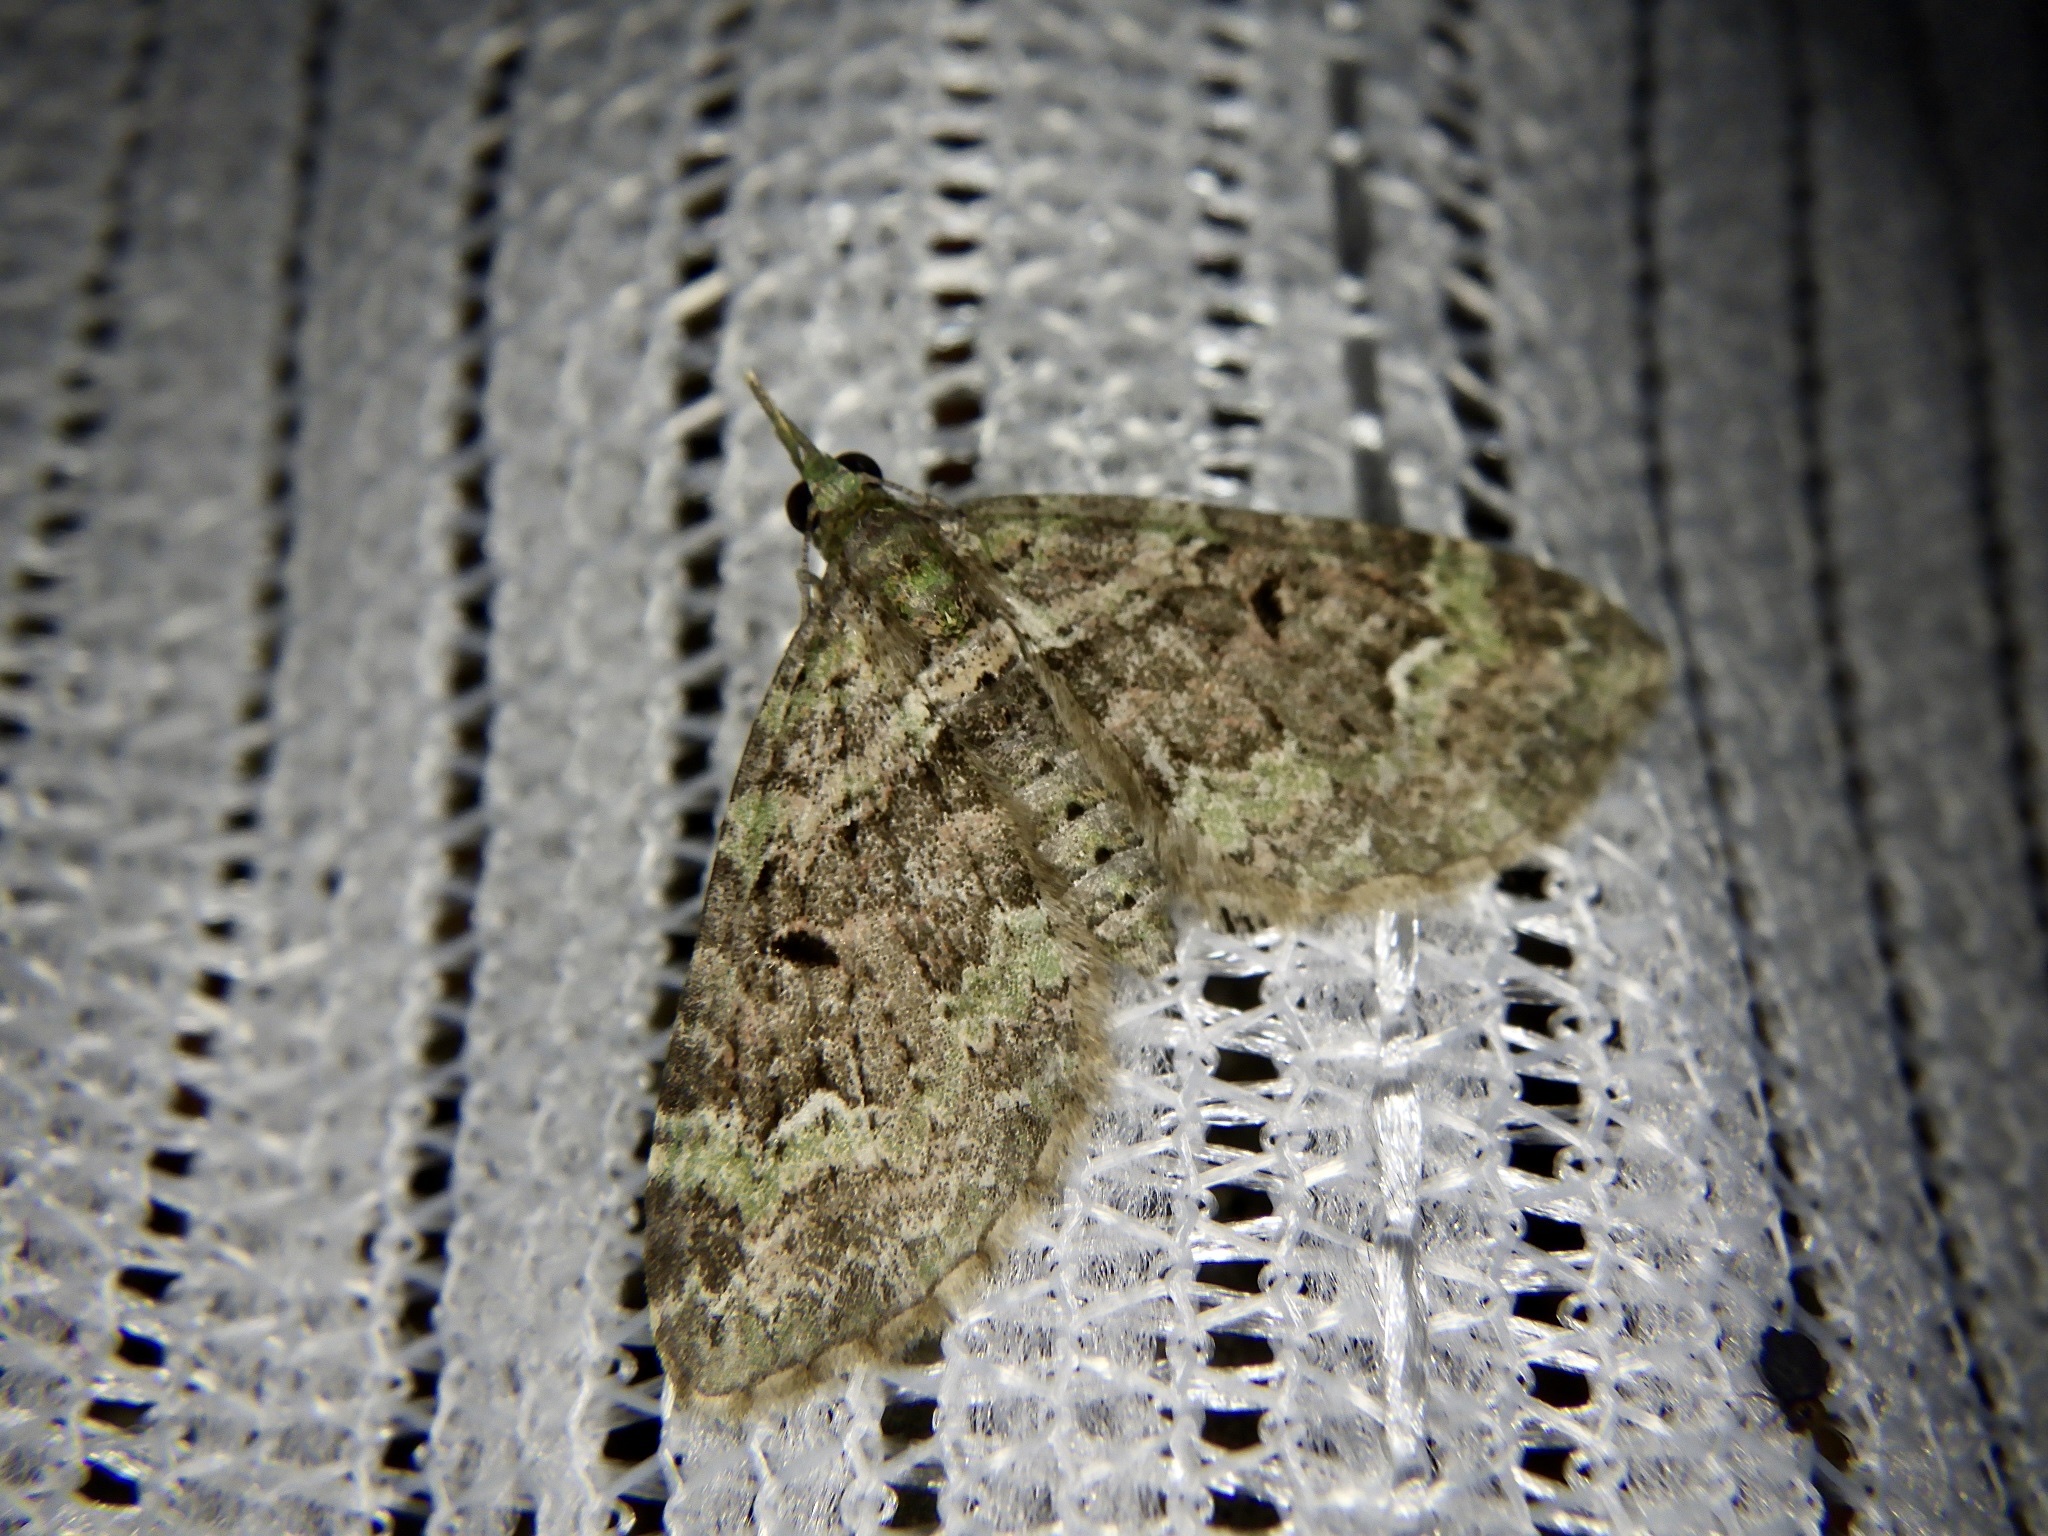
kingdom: Animalia
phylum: Arthropoda
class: Insecta
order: Lepidoptera
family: Geometridae
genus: Chloroclystis
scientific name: Chloroclystis
